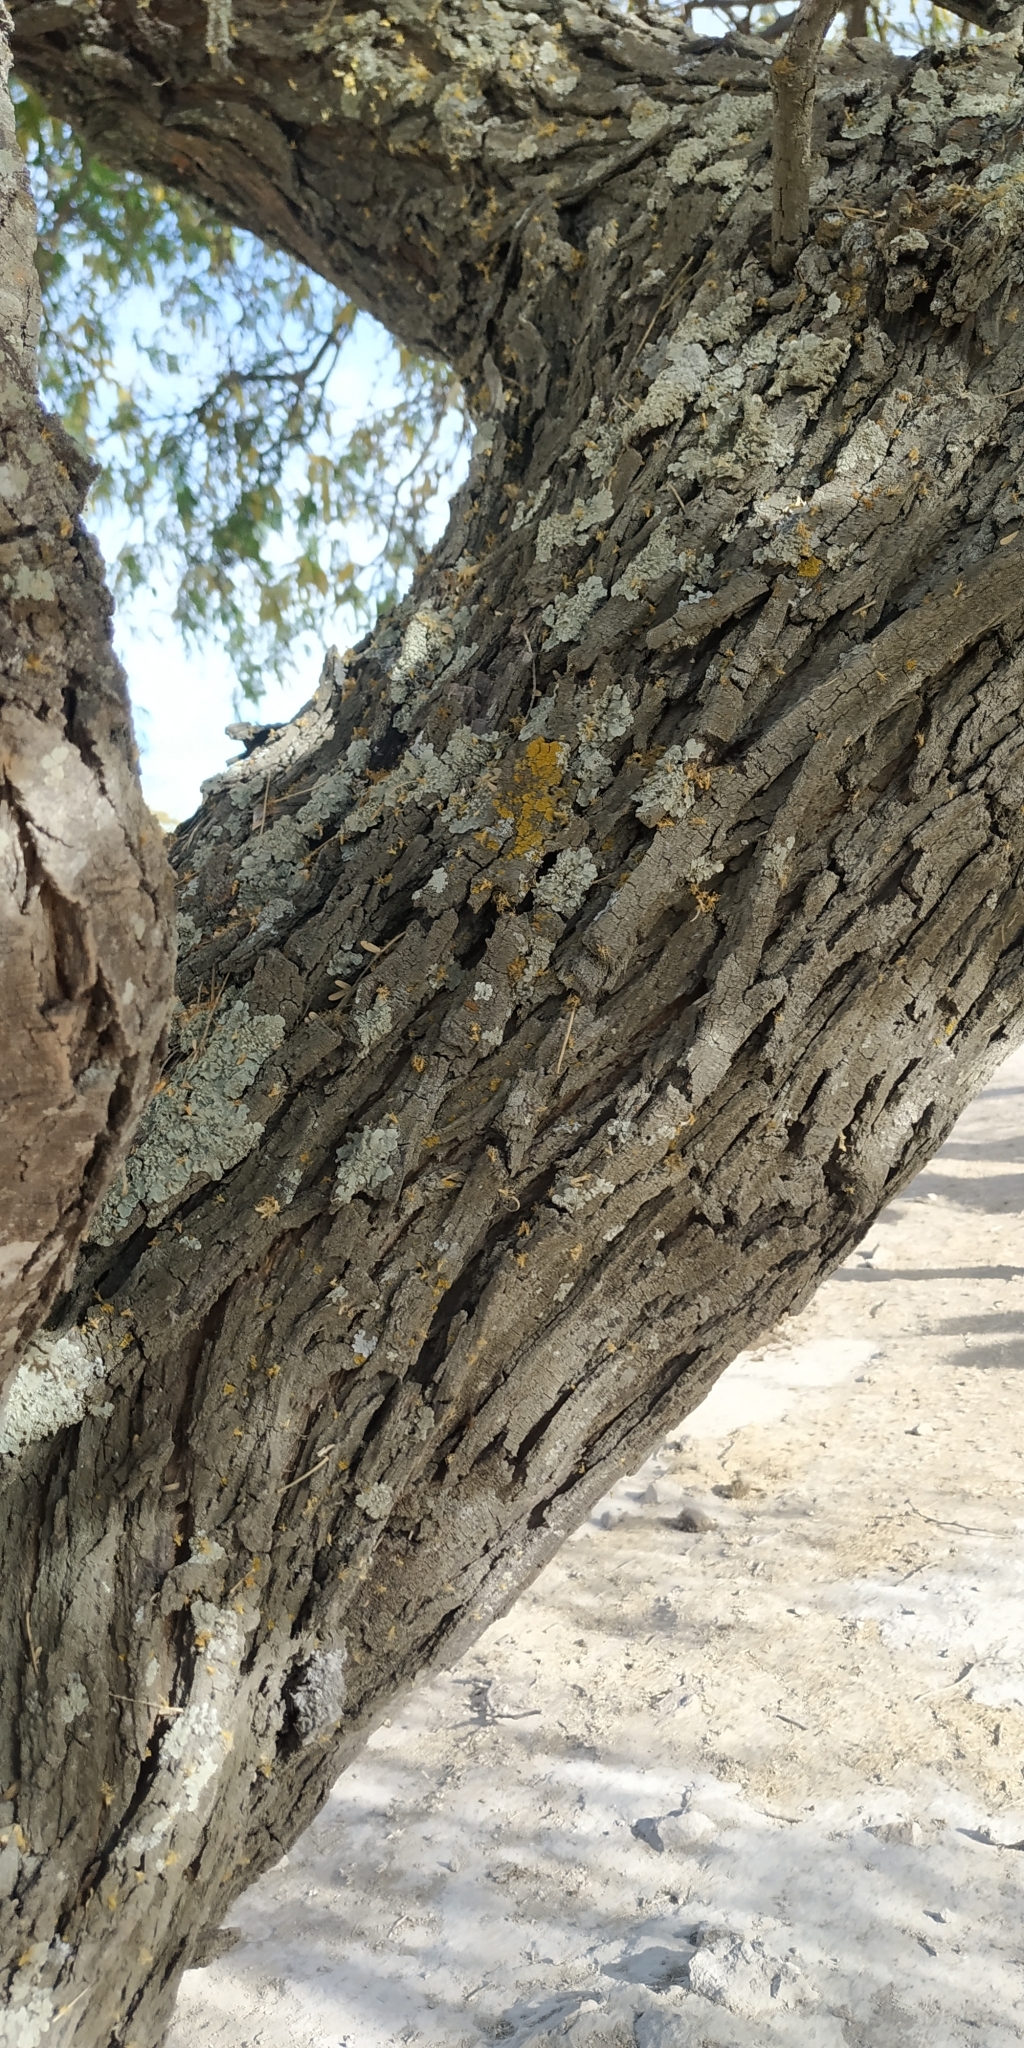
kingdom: Plantae
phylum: Tracheophyta
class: Magnoliopsida
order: Fabales
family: Fabaceae
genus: Prosopis
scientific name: Prosopis laevigata
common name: Smooth mesquite
